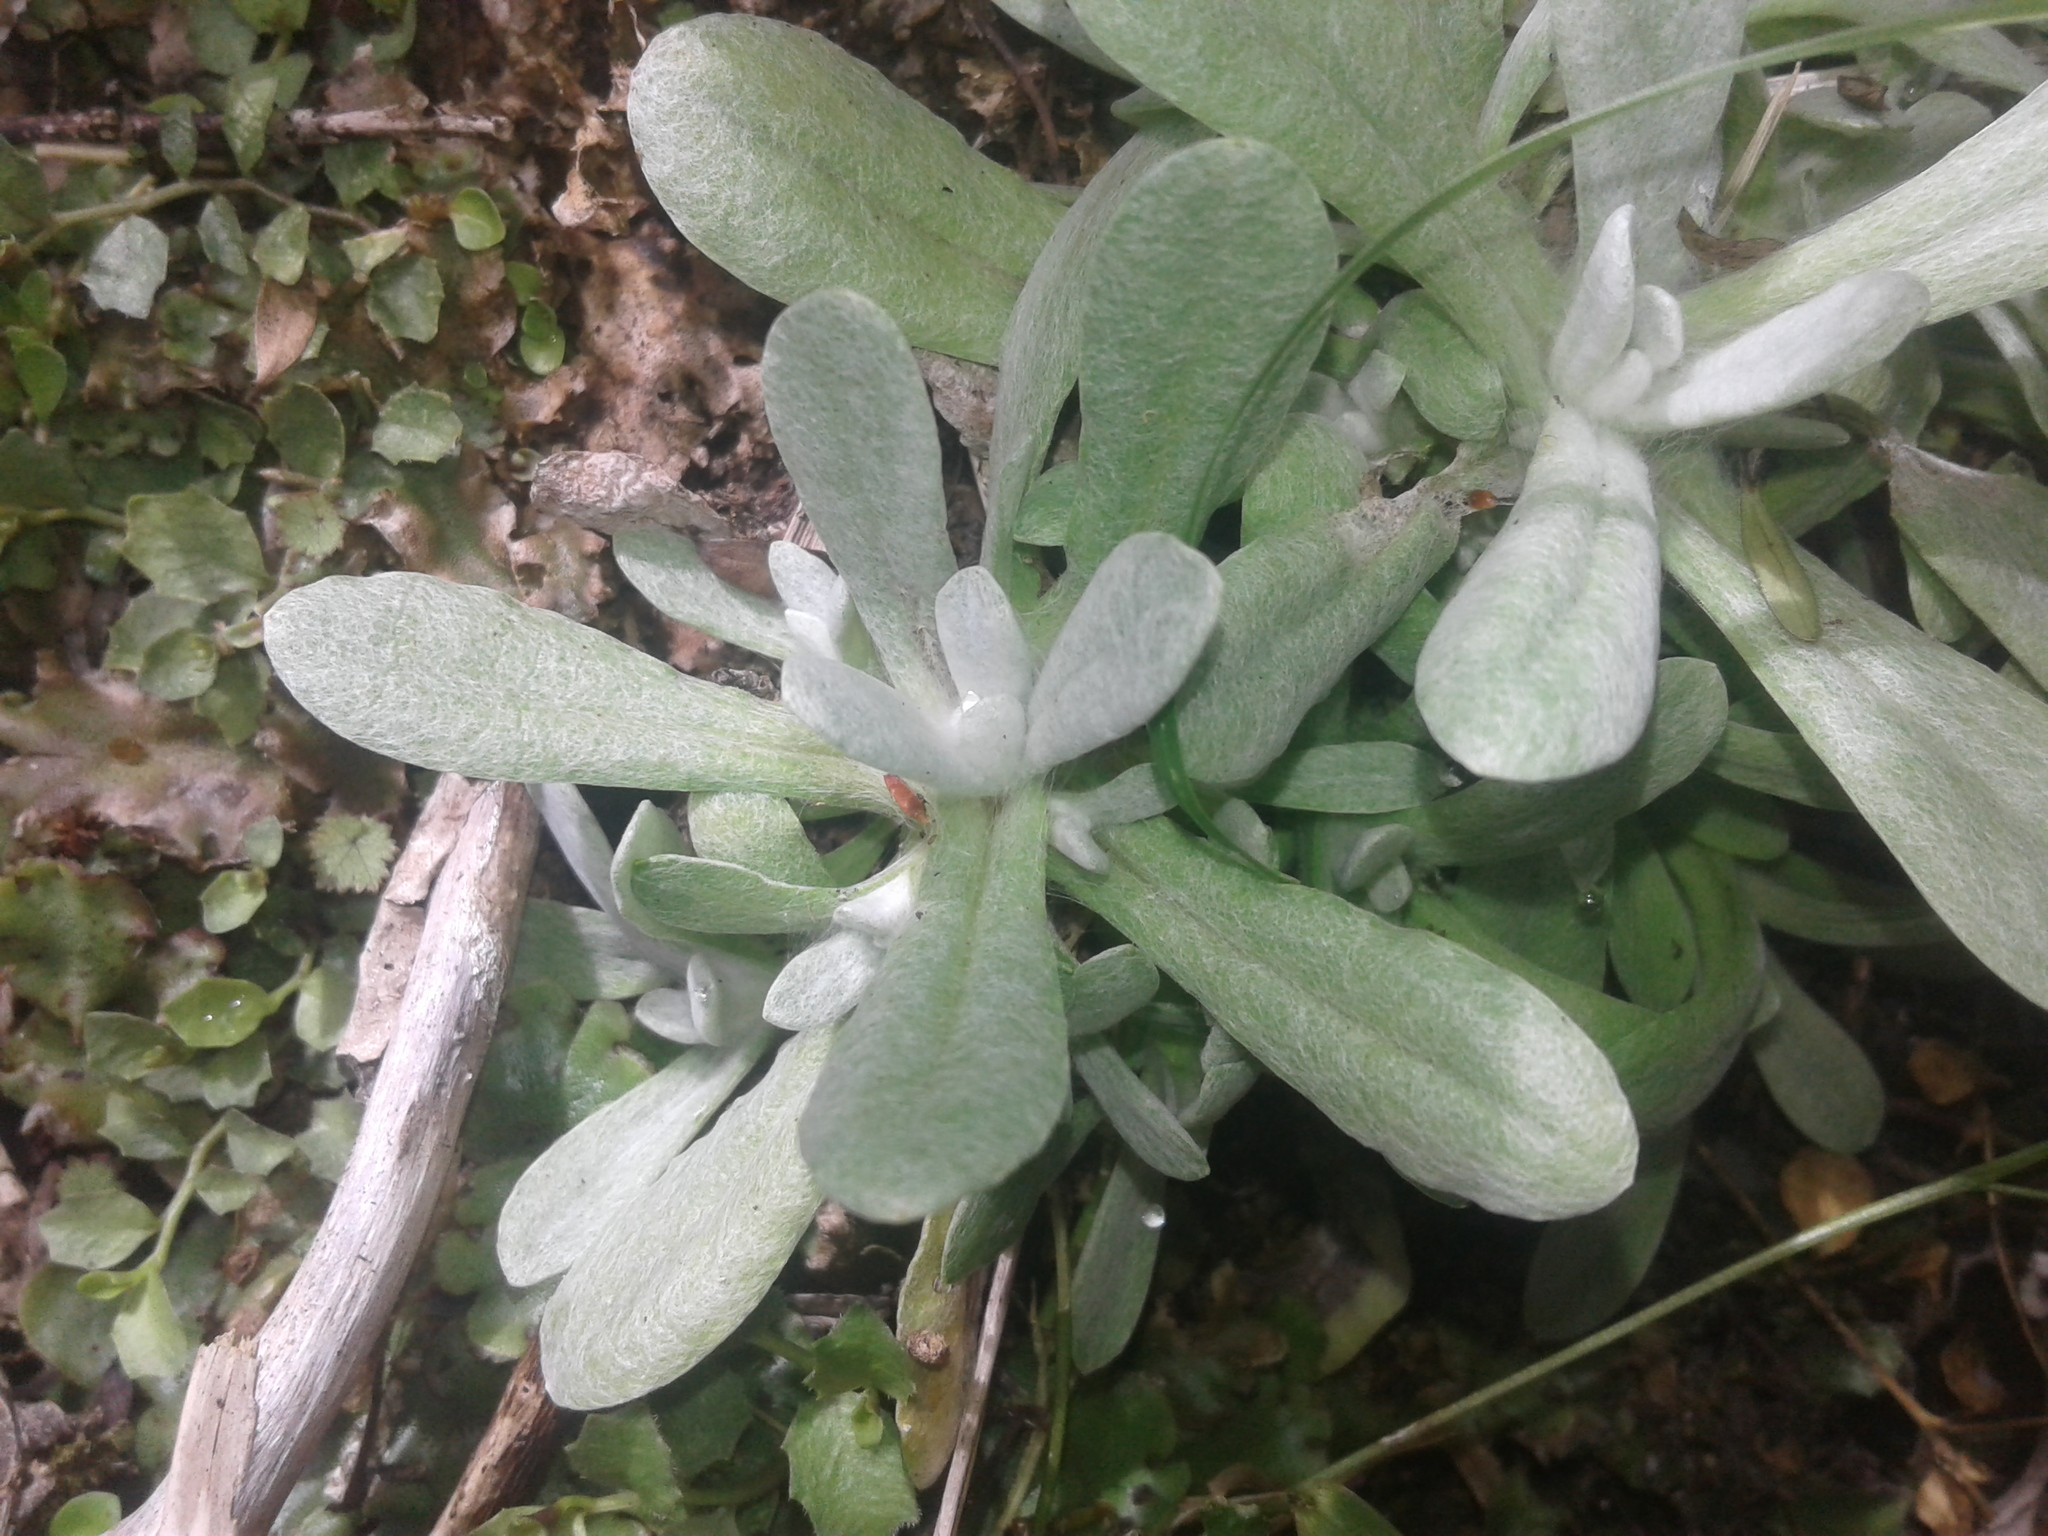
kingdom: Plantae
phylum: Tracheophyta
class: Magnoliopsida
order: Asterales
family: Asteraceae
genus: Helichrysum
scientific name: Helichrysum luteoalbum
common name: Daisy
